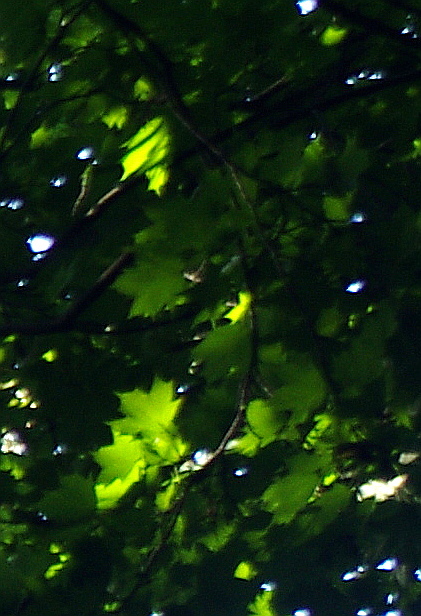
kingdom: Plantae
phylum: Tracheophyta
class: Magnoliopsida
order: Sapindales
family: Sapindaceae
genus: Acer
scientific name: Acer platanoides
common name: Norway maple
